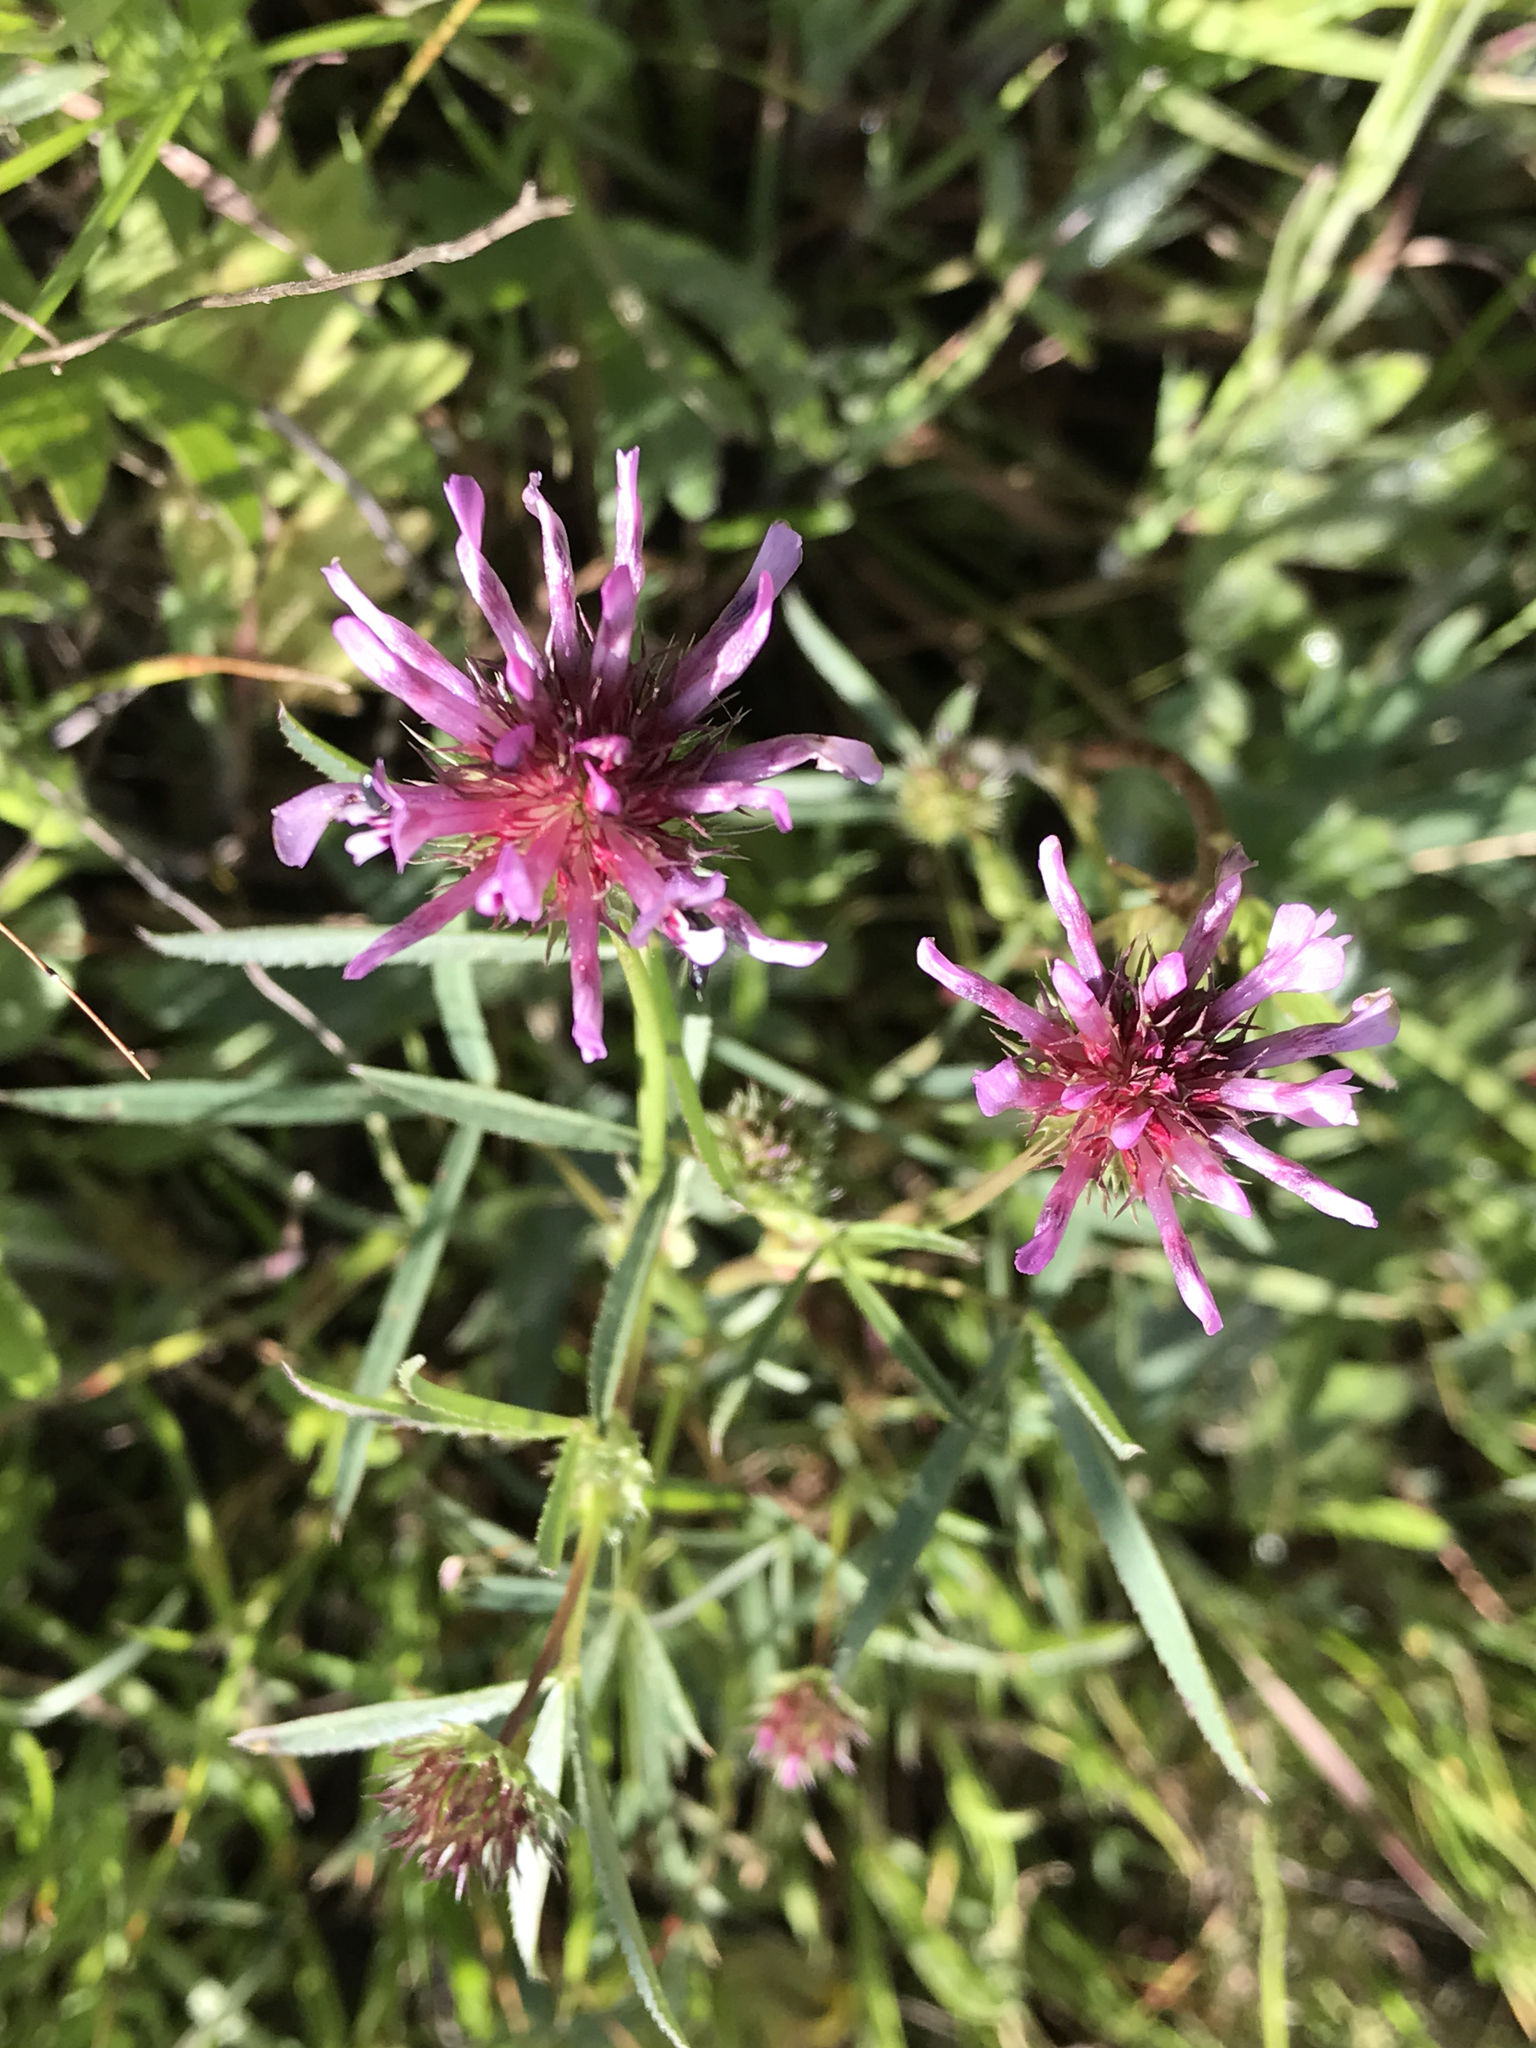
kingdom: Plantae
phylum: Tracheophyta
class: Magnoliopsida
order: Fabales
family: Fabaceae
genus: Trifolium
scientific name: Trifolium willdenovii
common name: Tomcat clover
